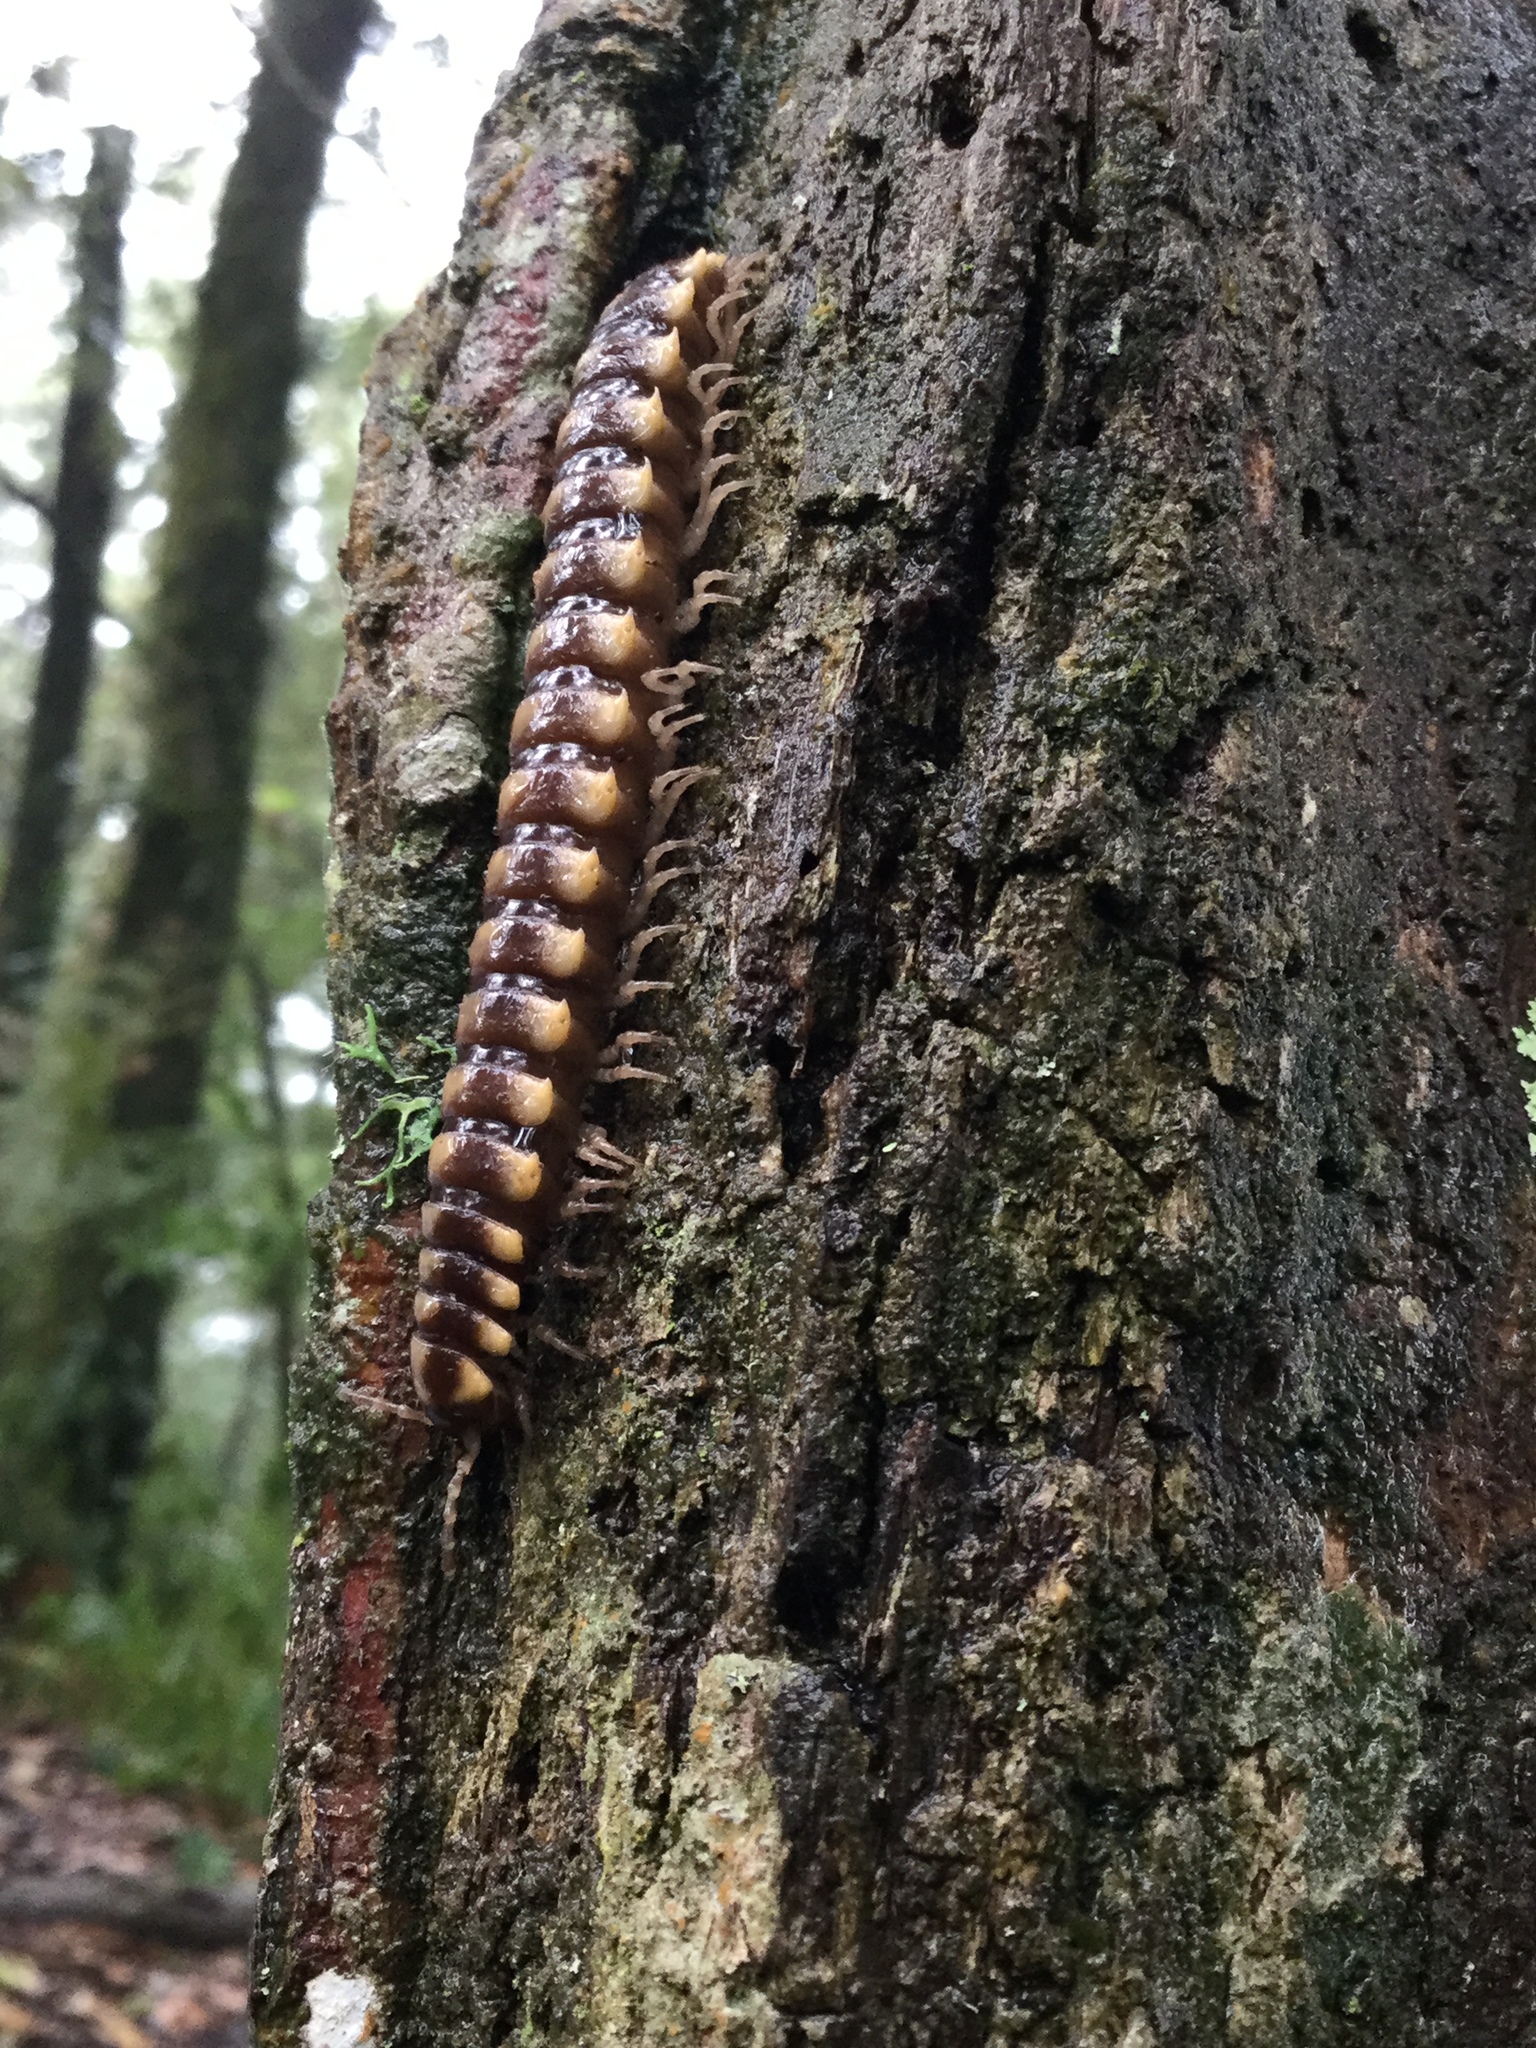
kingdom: Animalia
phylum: Arthropoda
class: Diplopoda
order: Polydesmida
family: Aphelidesmidae
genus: Exallostethus
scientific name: Exallostethus thrinax
